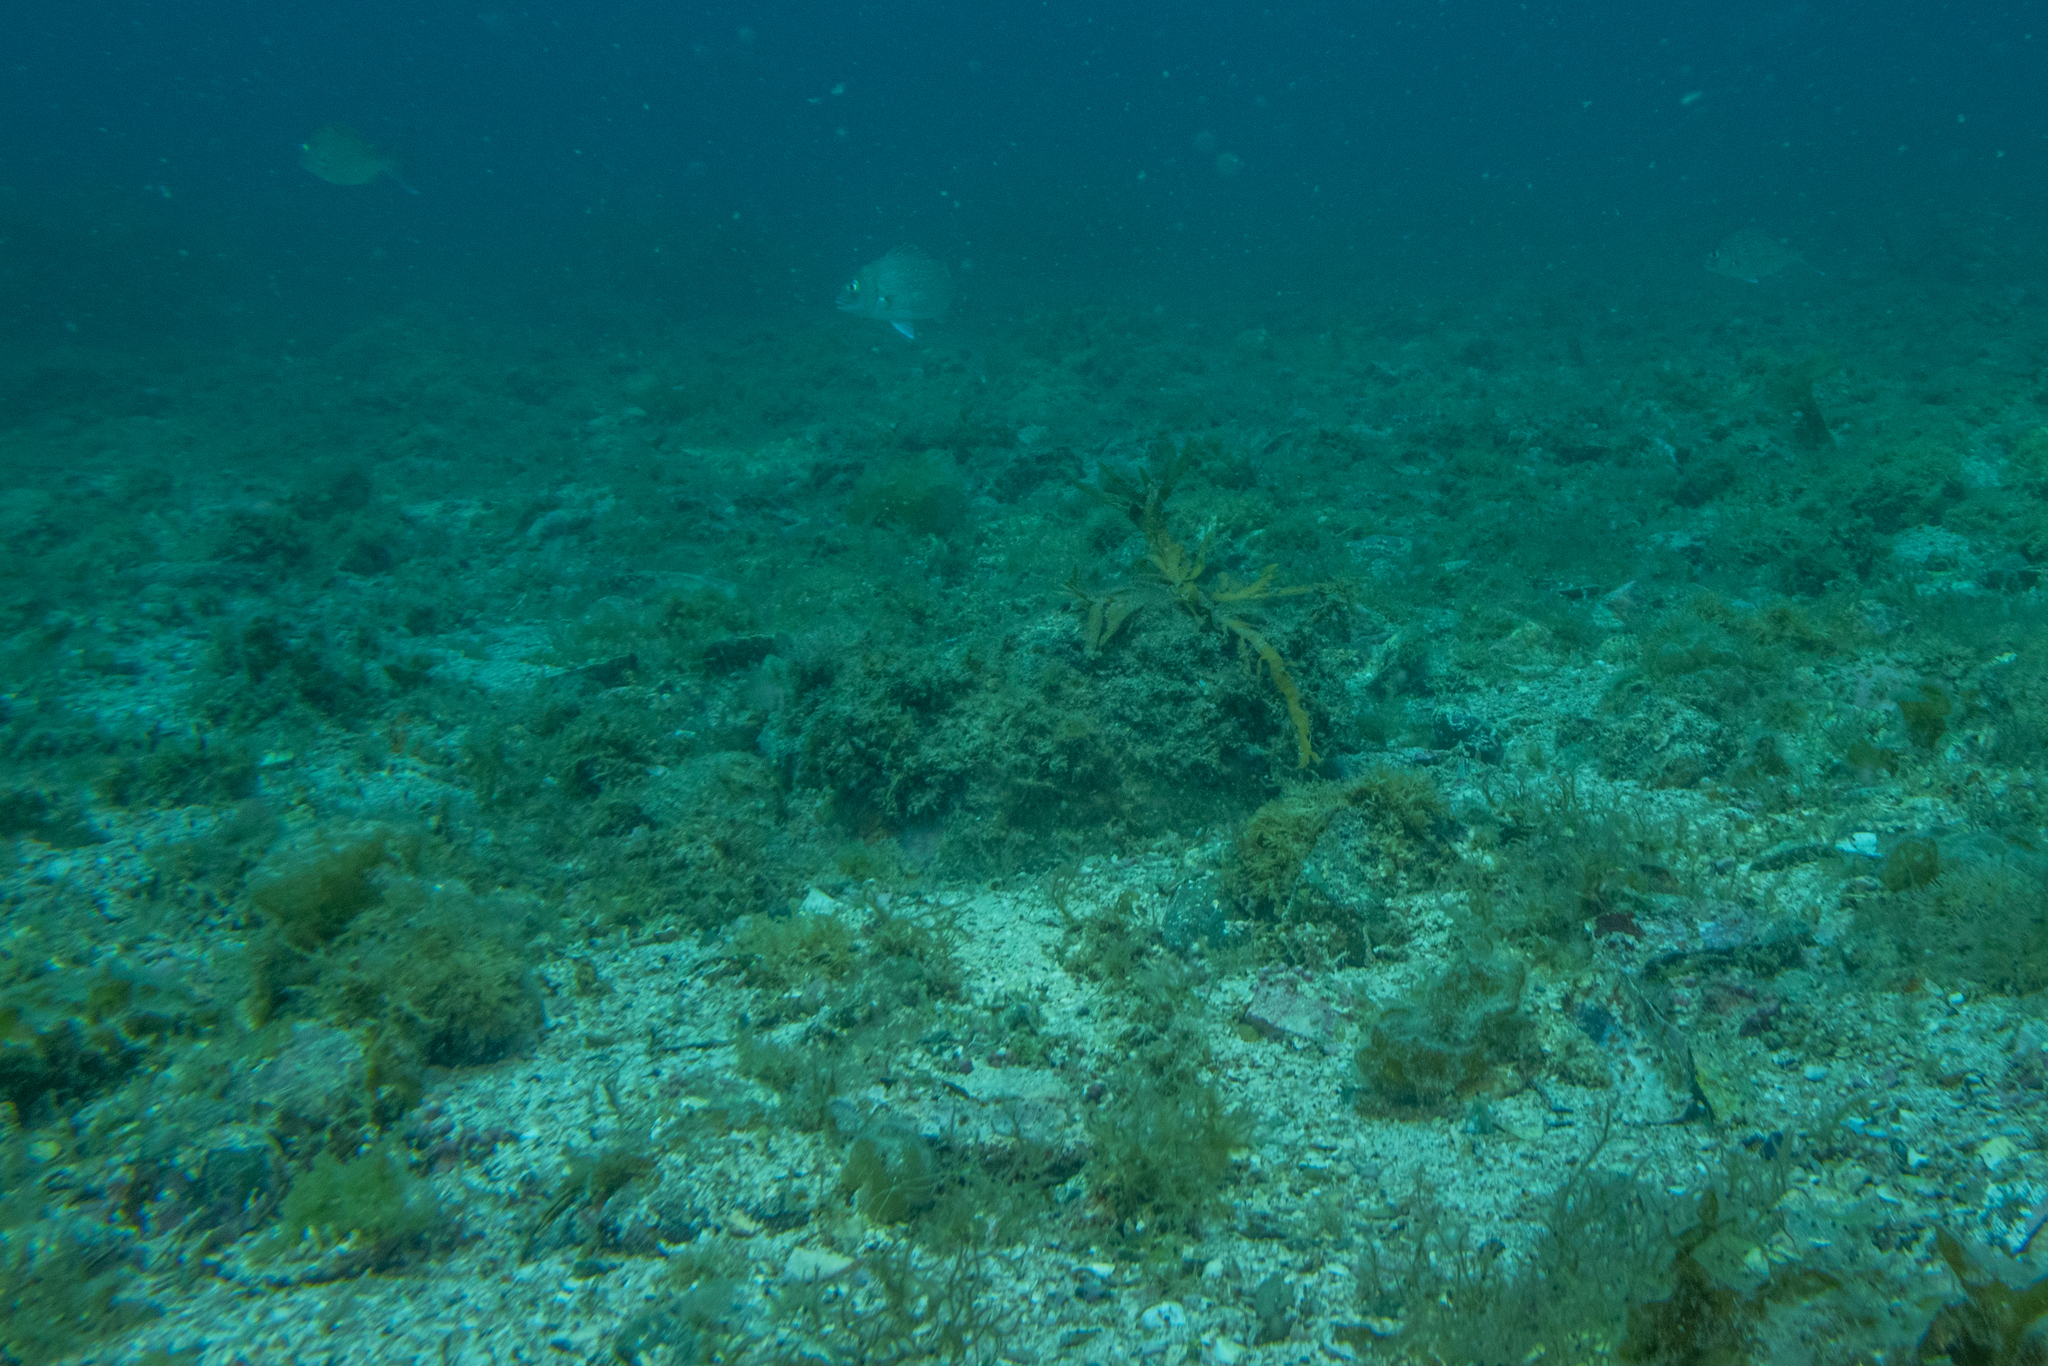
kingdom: Animalia
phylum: Chordata
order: Perciformes
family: Sparidae
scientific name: Sparidae
